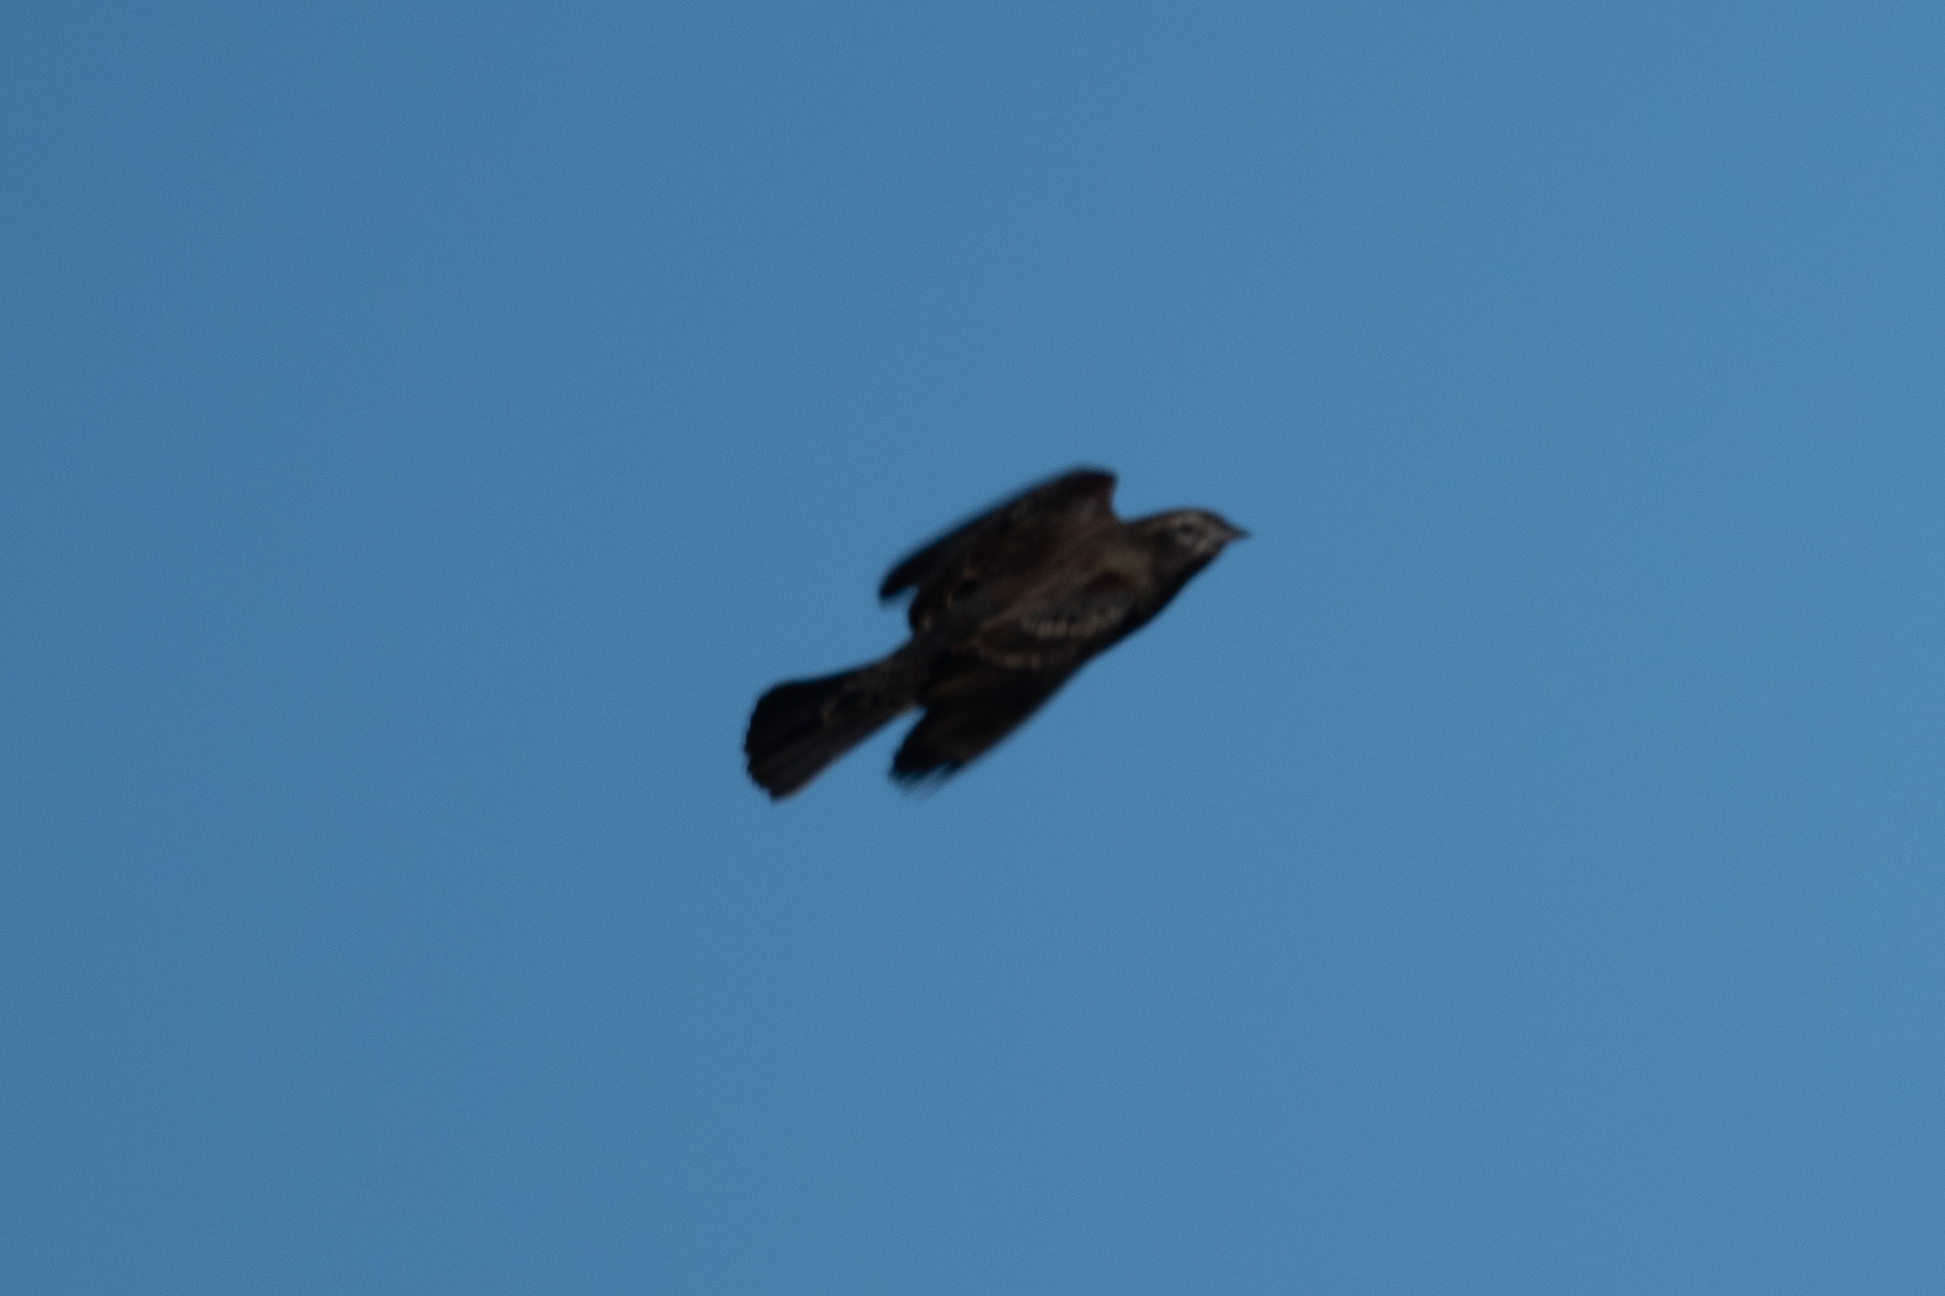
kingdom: Animalia
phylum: Chordata
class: Aves
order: Passeriformes
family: Icteridae
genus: Agelaius
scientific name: Agelaius phoeniceus
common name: Red-winged blackbird
